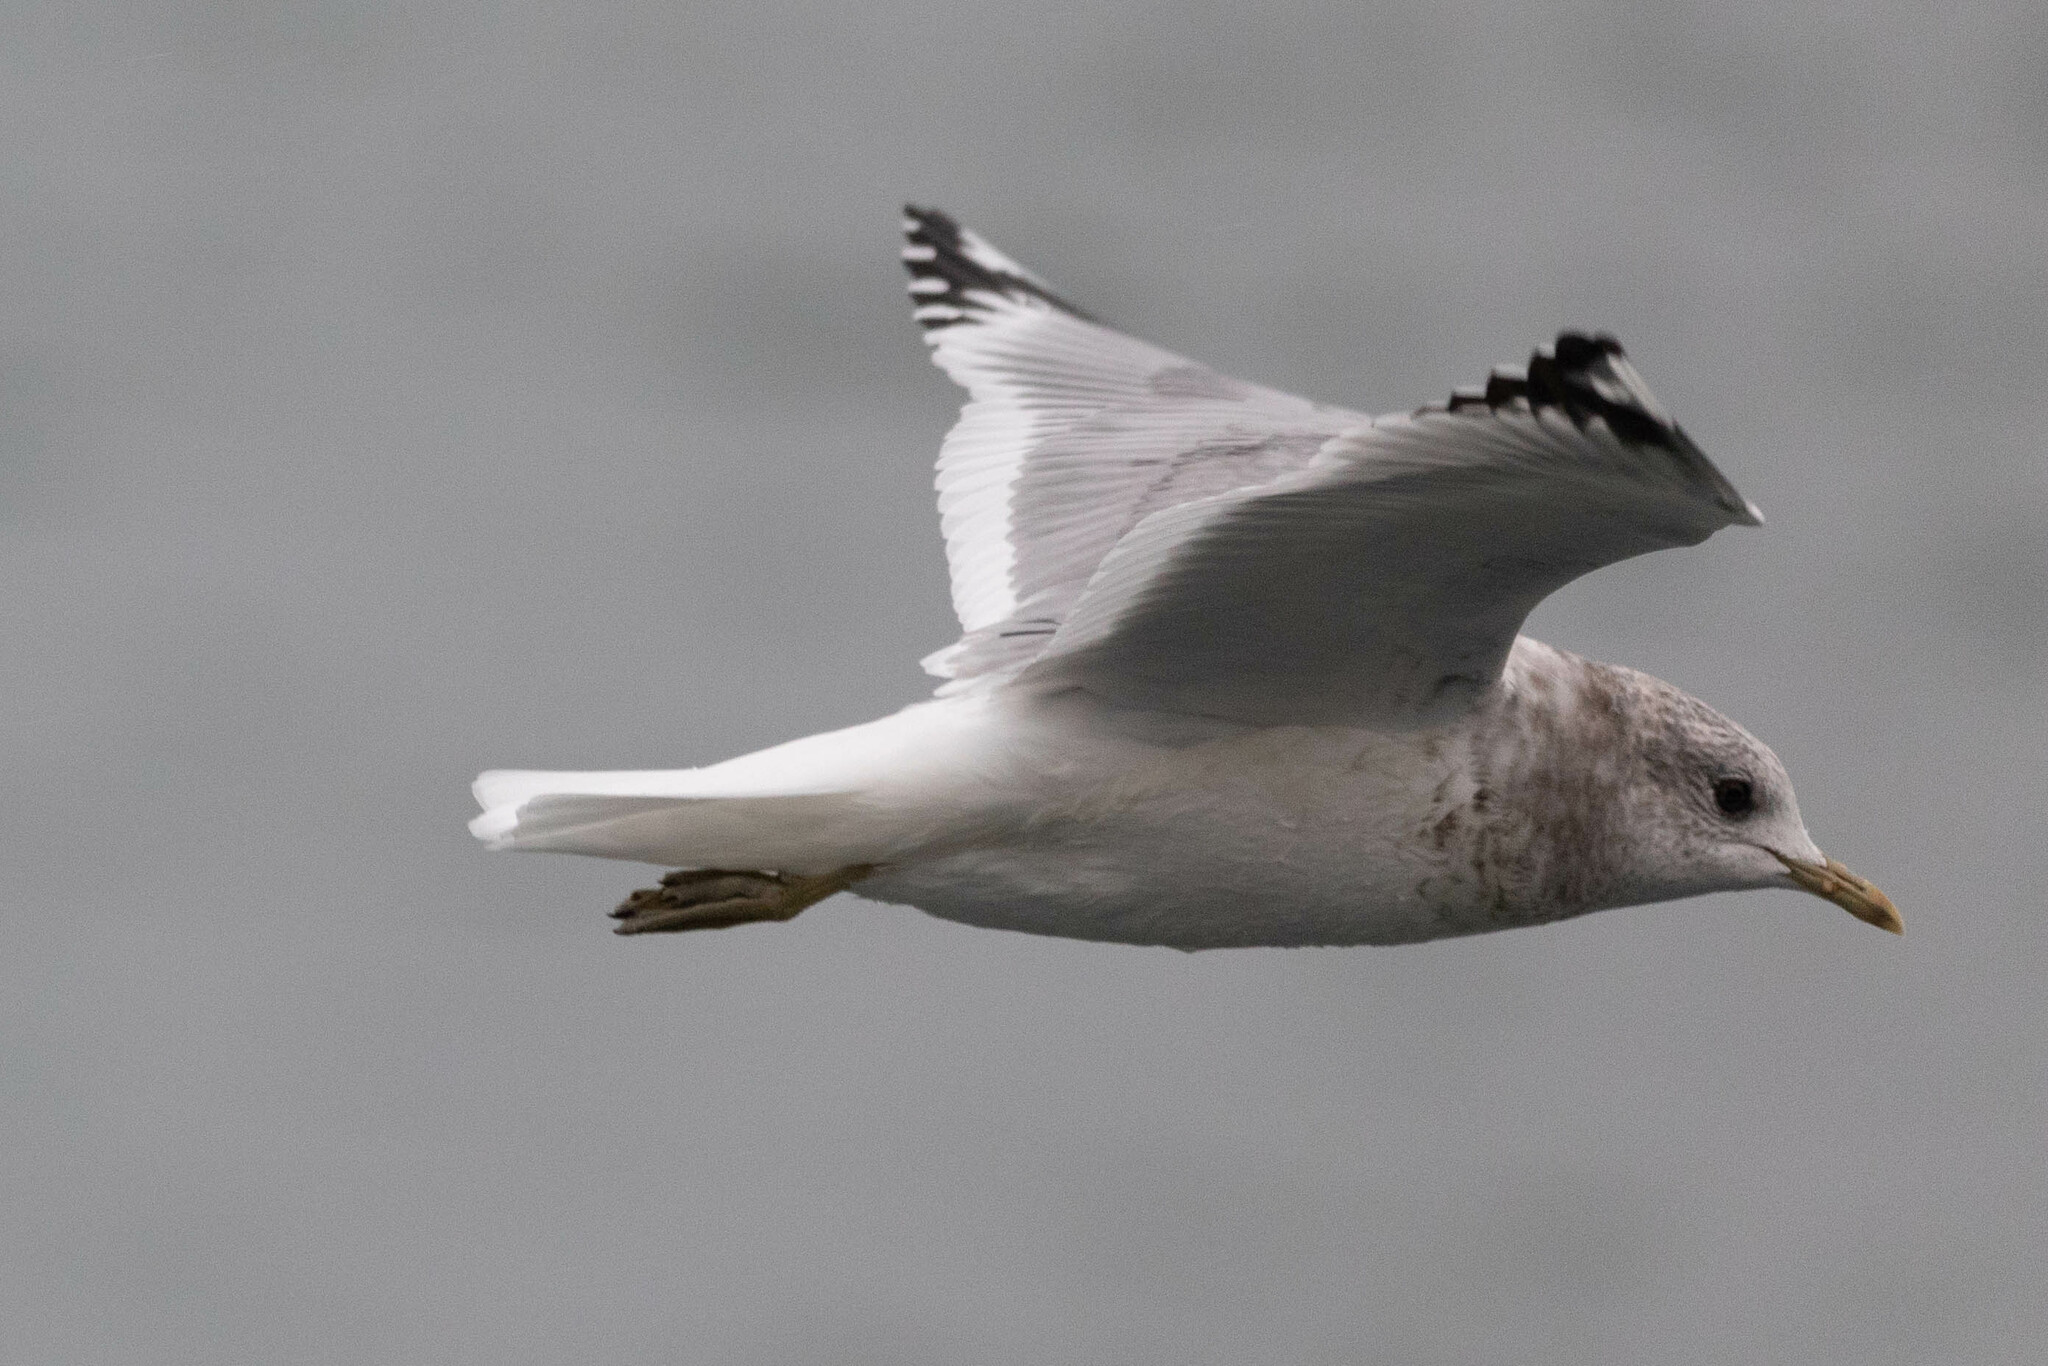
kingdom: Animalia
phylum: Chordata
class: Aves
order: Charadriiformes
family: Laridae
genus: Larus
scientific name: Larus brachyrhynchus
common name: Short-billed gull
